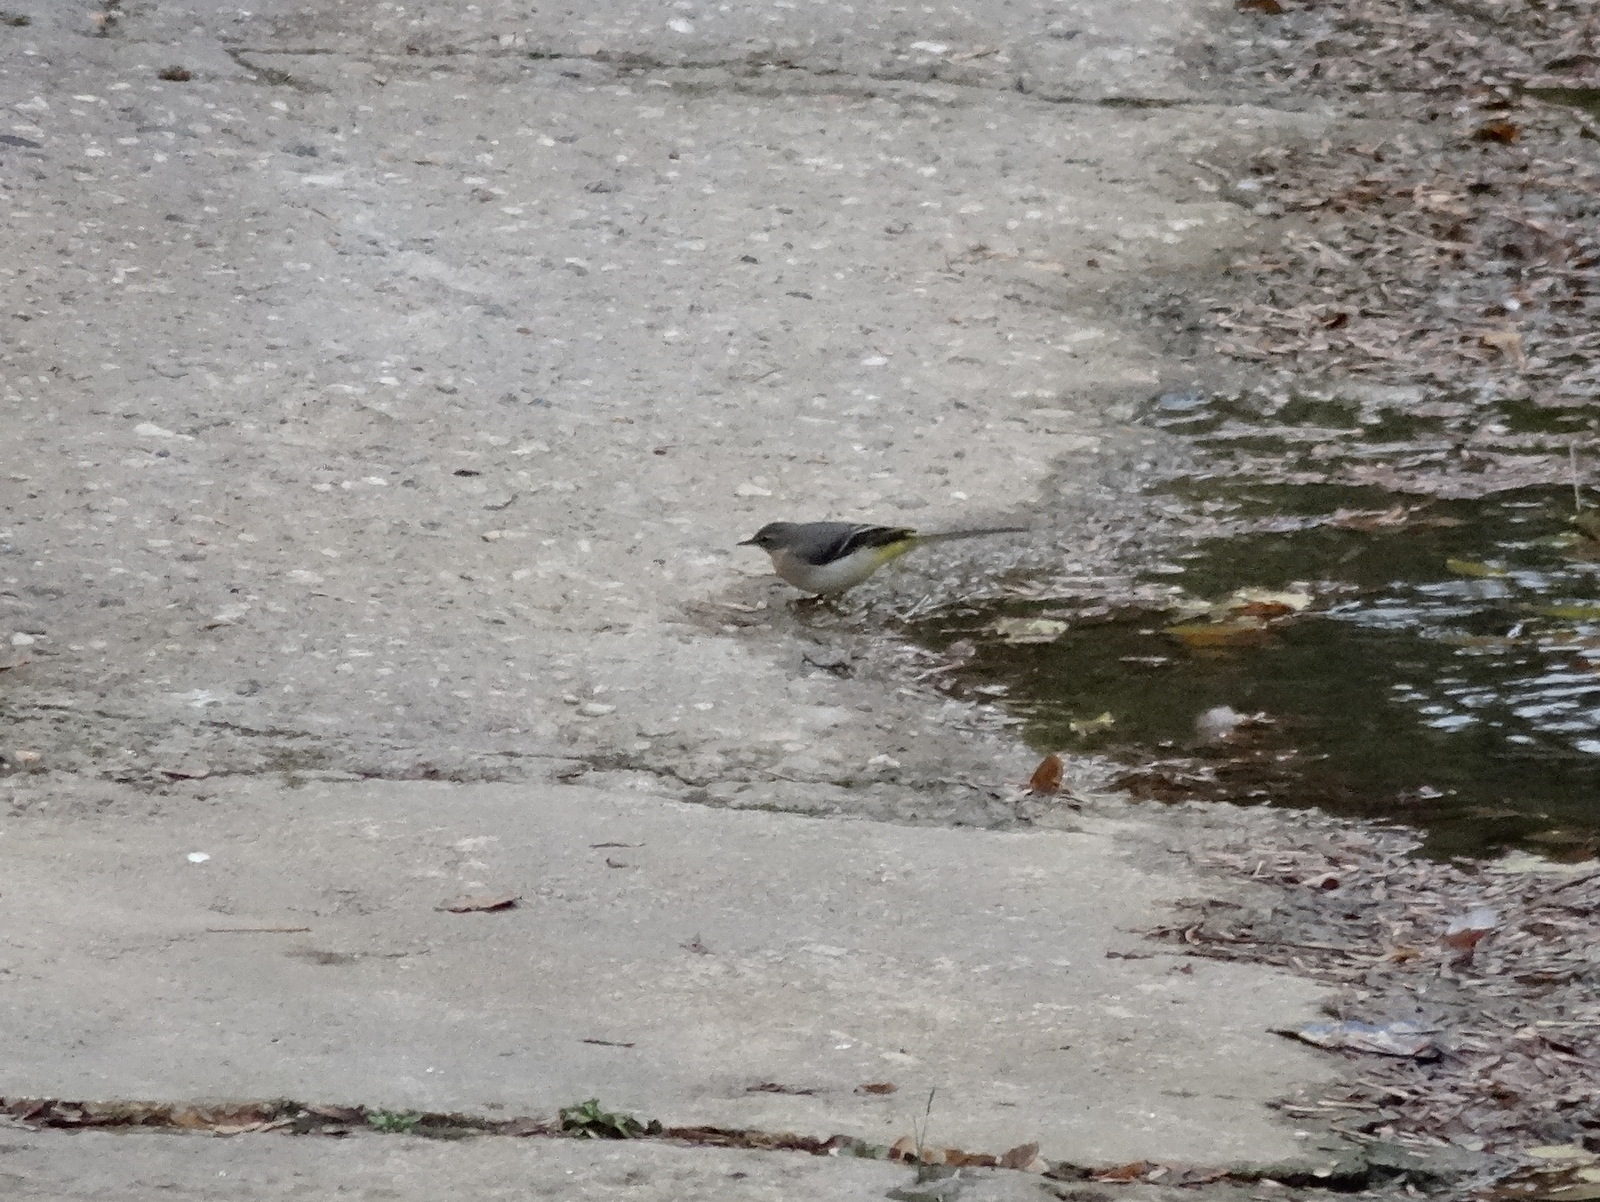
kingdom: Animalia
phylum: Chordata
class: Aves
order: Passeriformes
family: Motacillidae
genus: Motacilla
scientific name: Motacilla cinerea
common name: Grey wagtail
